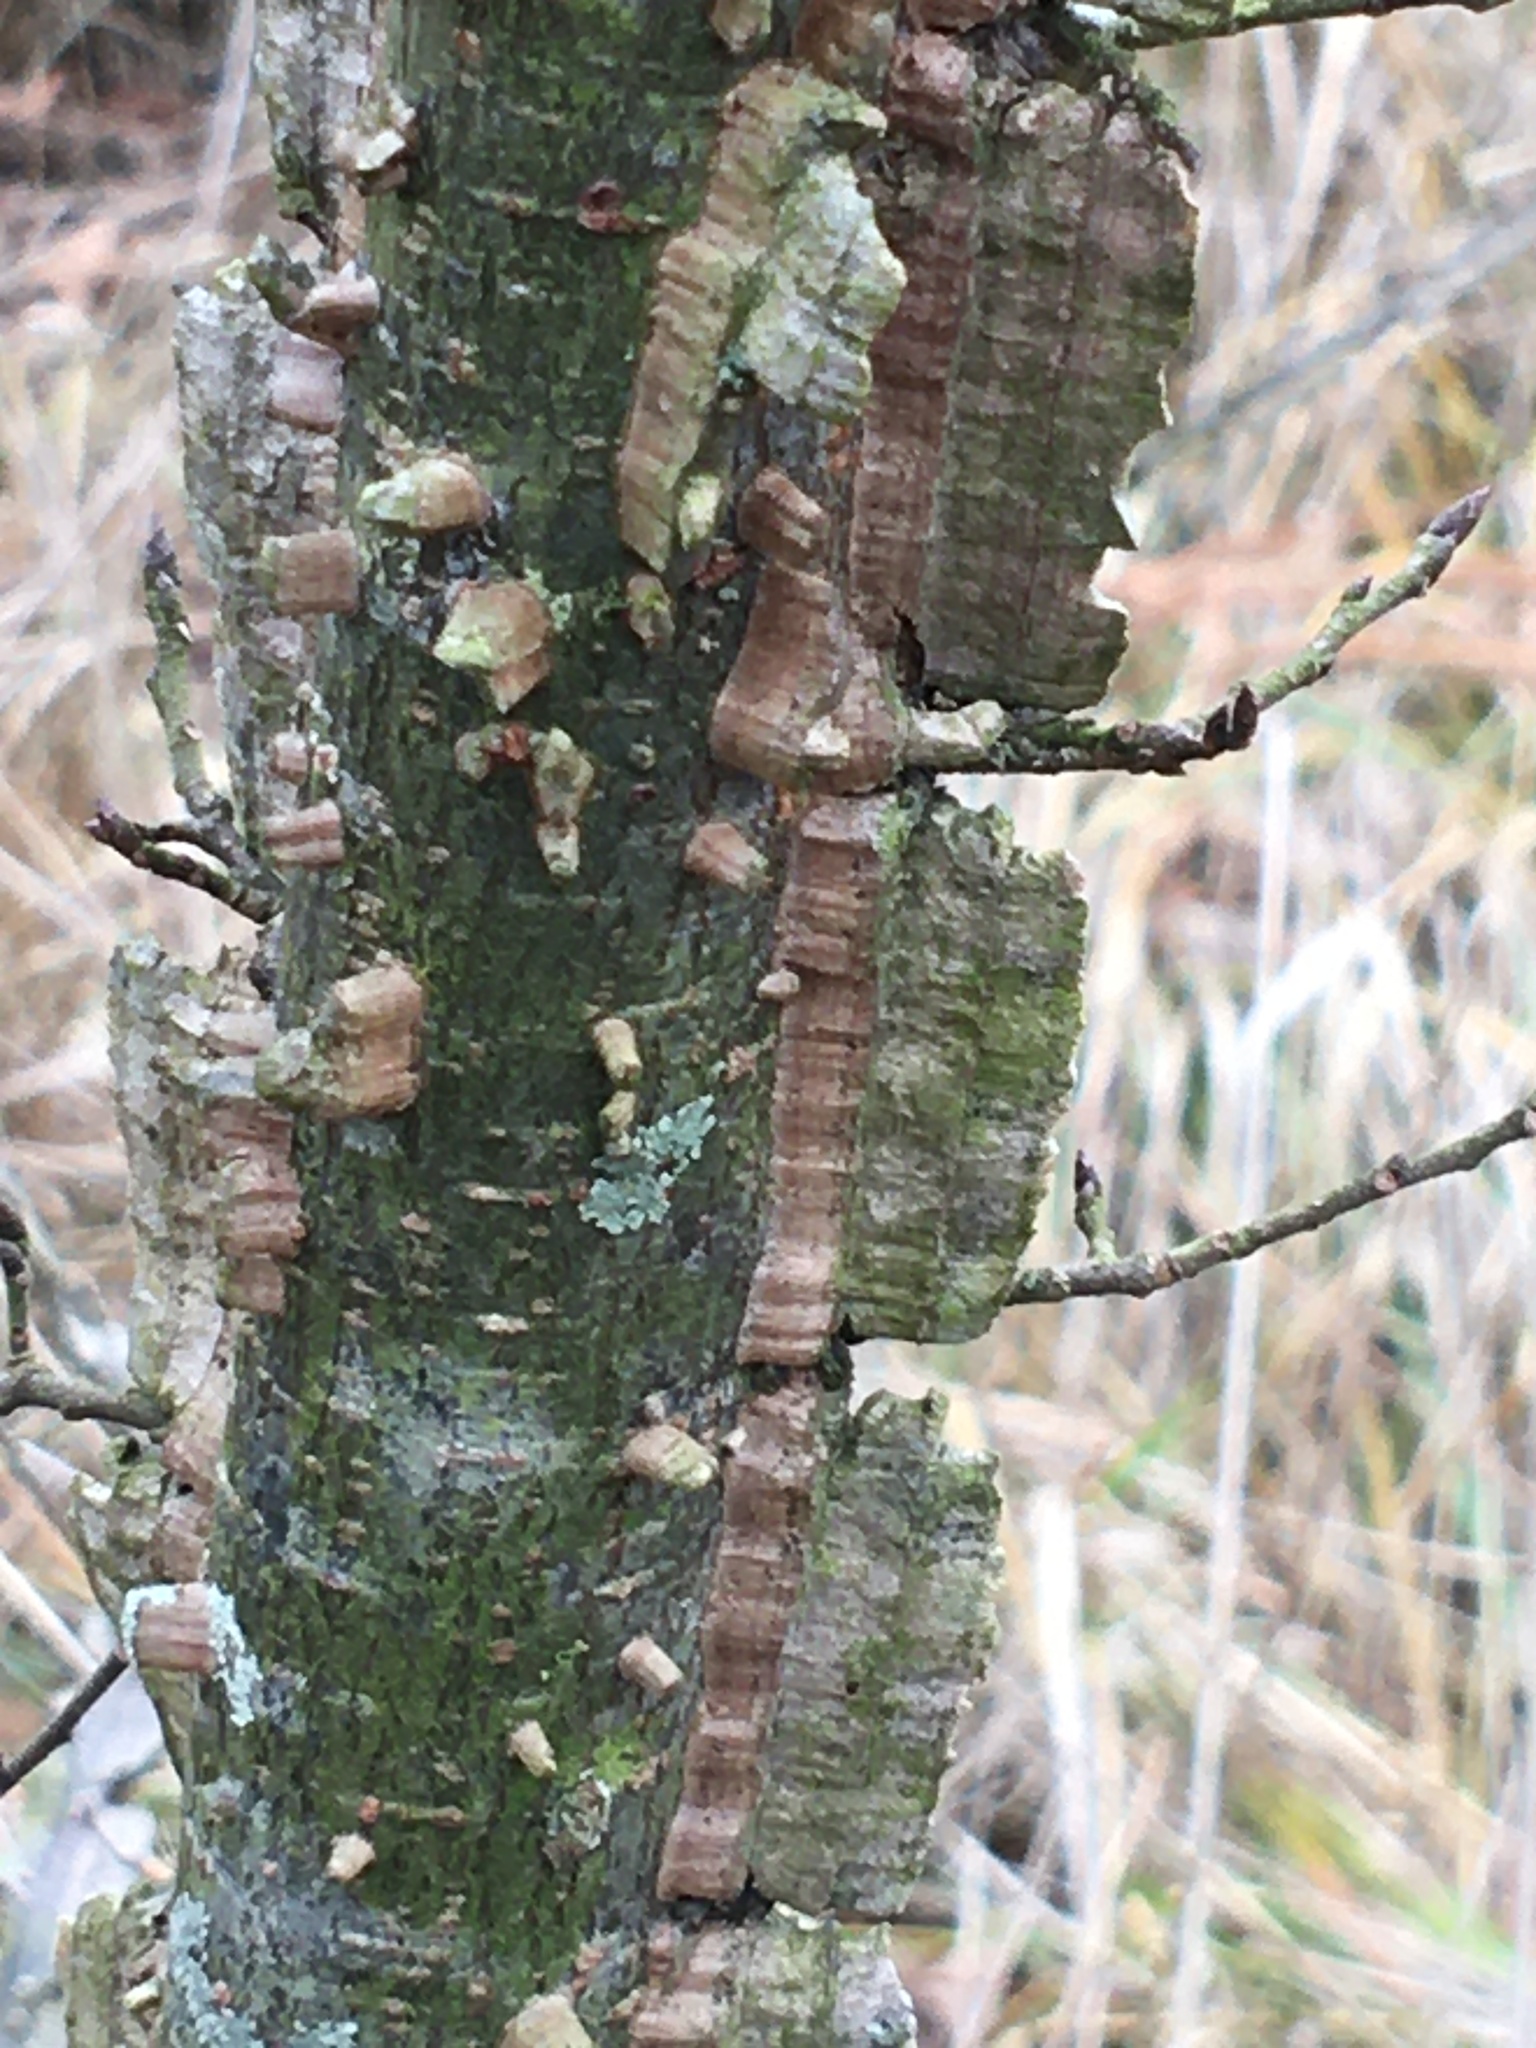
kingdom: Plantae
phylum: Tracheophyta
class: Magnoliopsida
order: Rosales
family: Ulmaceae
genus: Ulmus
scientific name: Ulmus alata
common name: Winged elm
